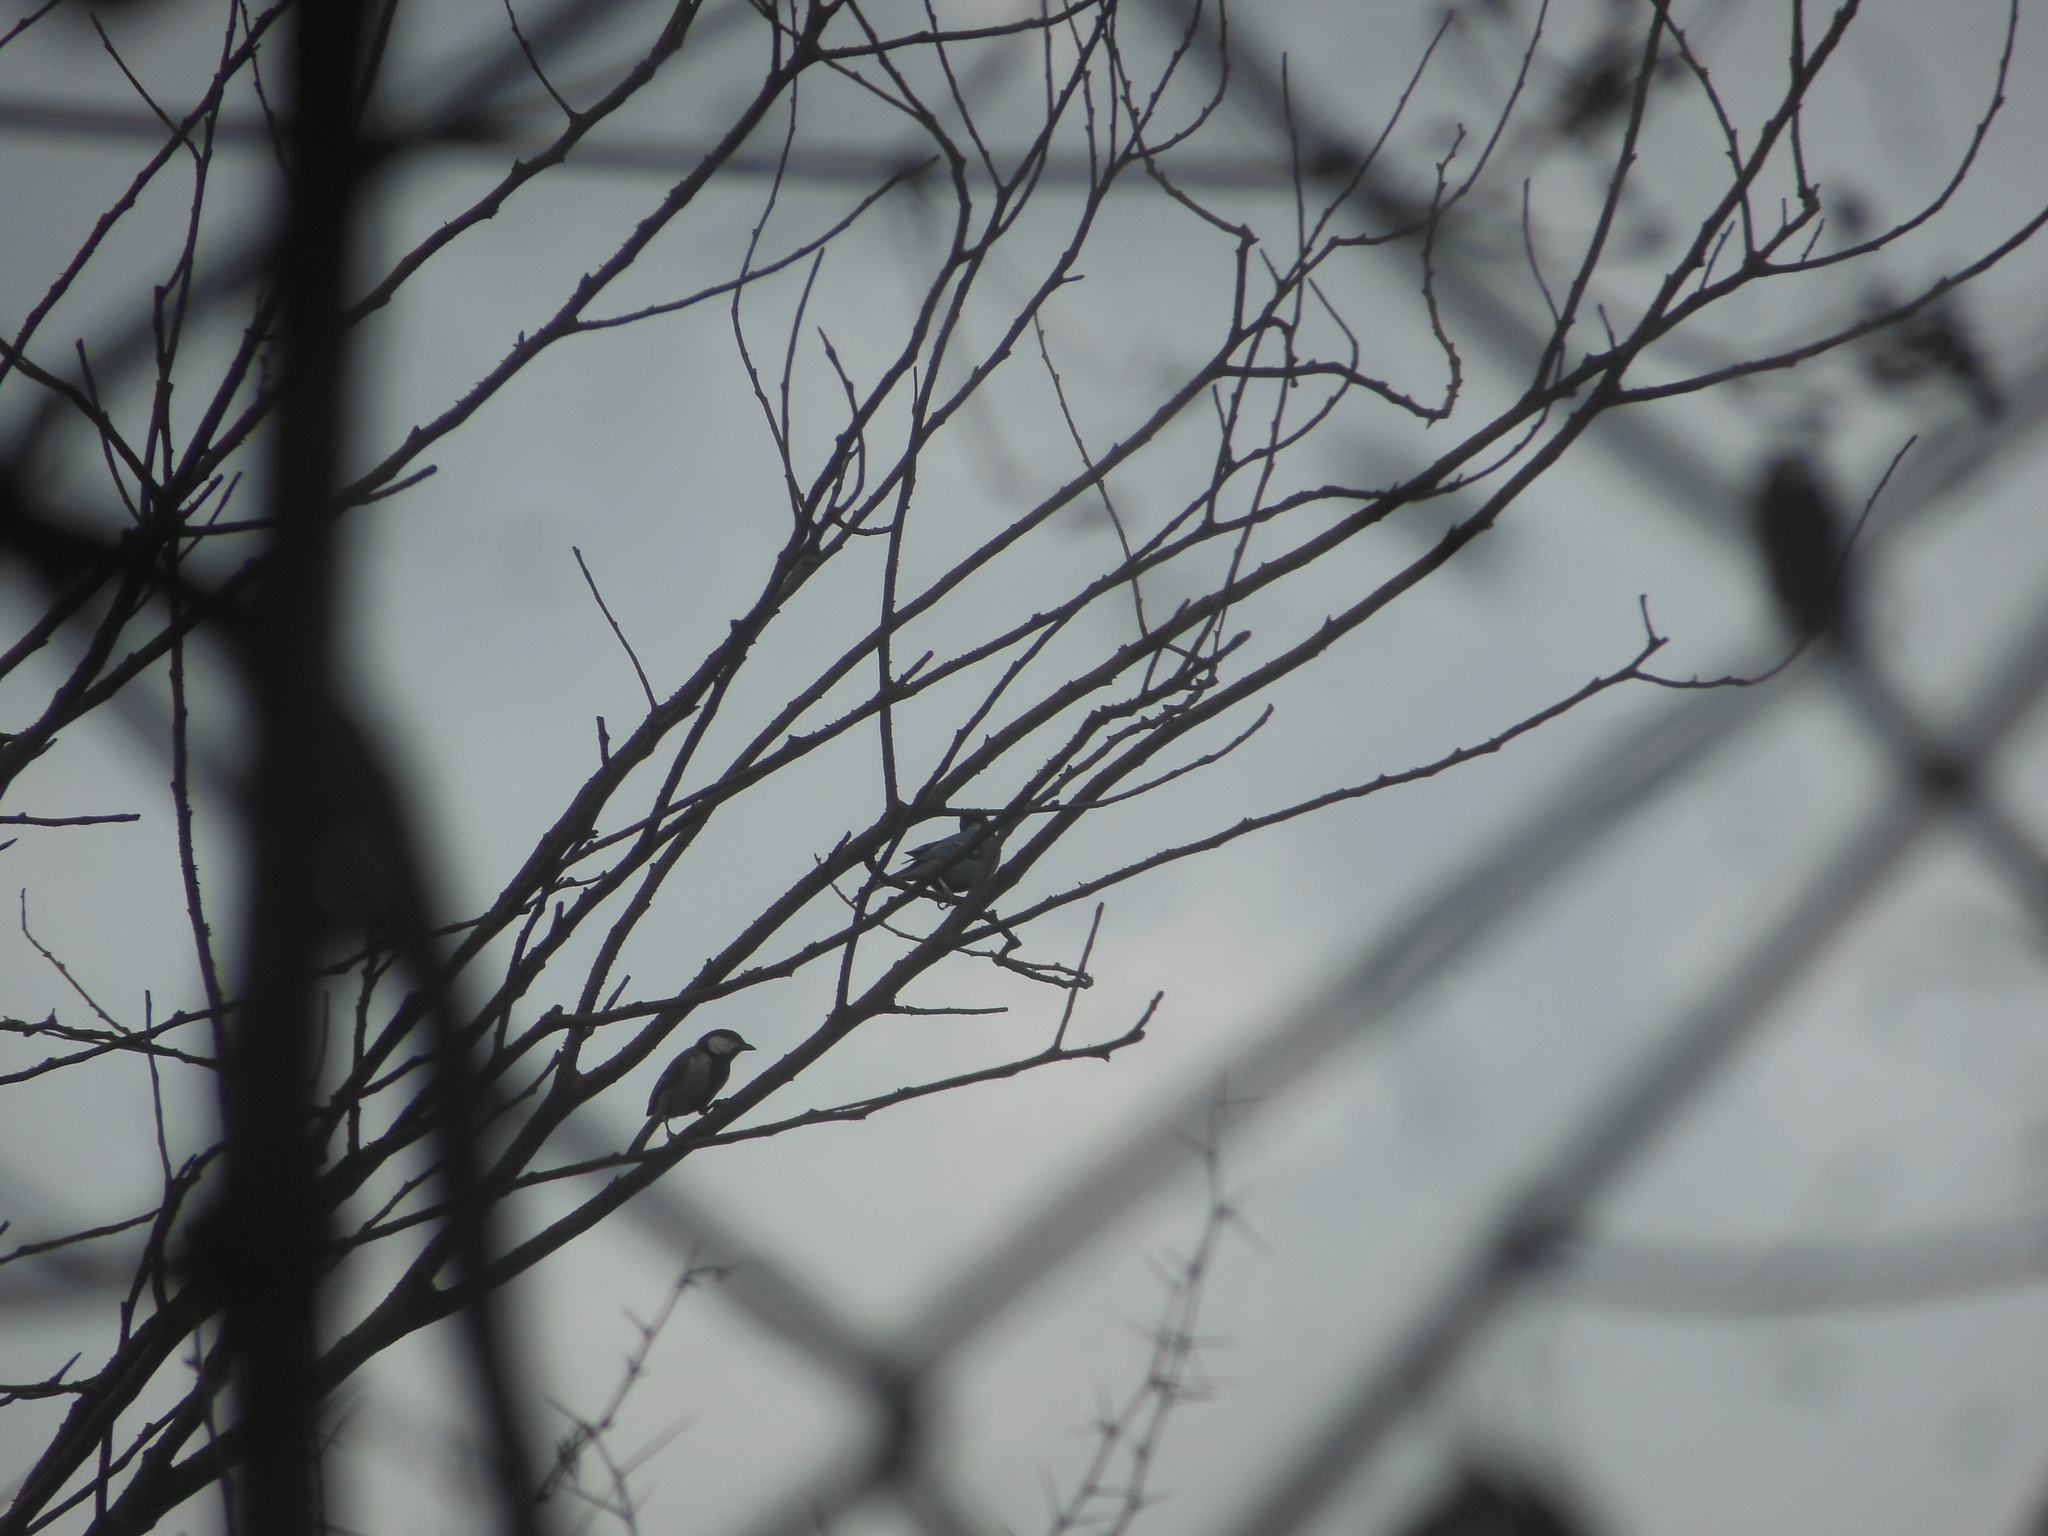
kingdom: Animalia
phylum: Chordata
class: Aves
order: Passeriformes
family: Paridae
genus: Parus
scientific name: Parus cinereus
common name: Cinereous tit
